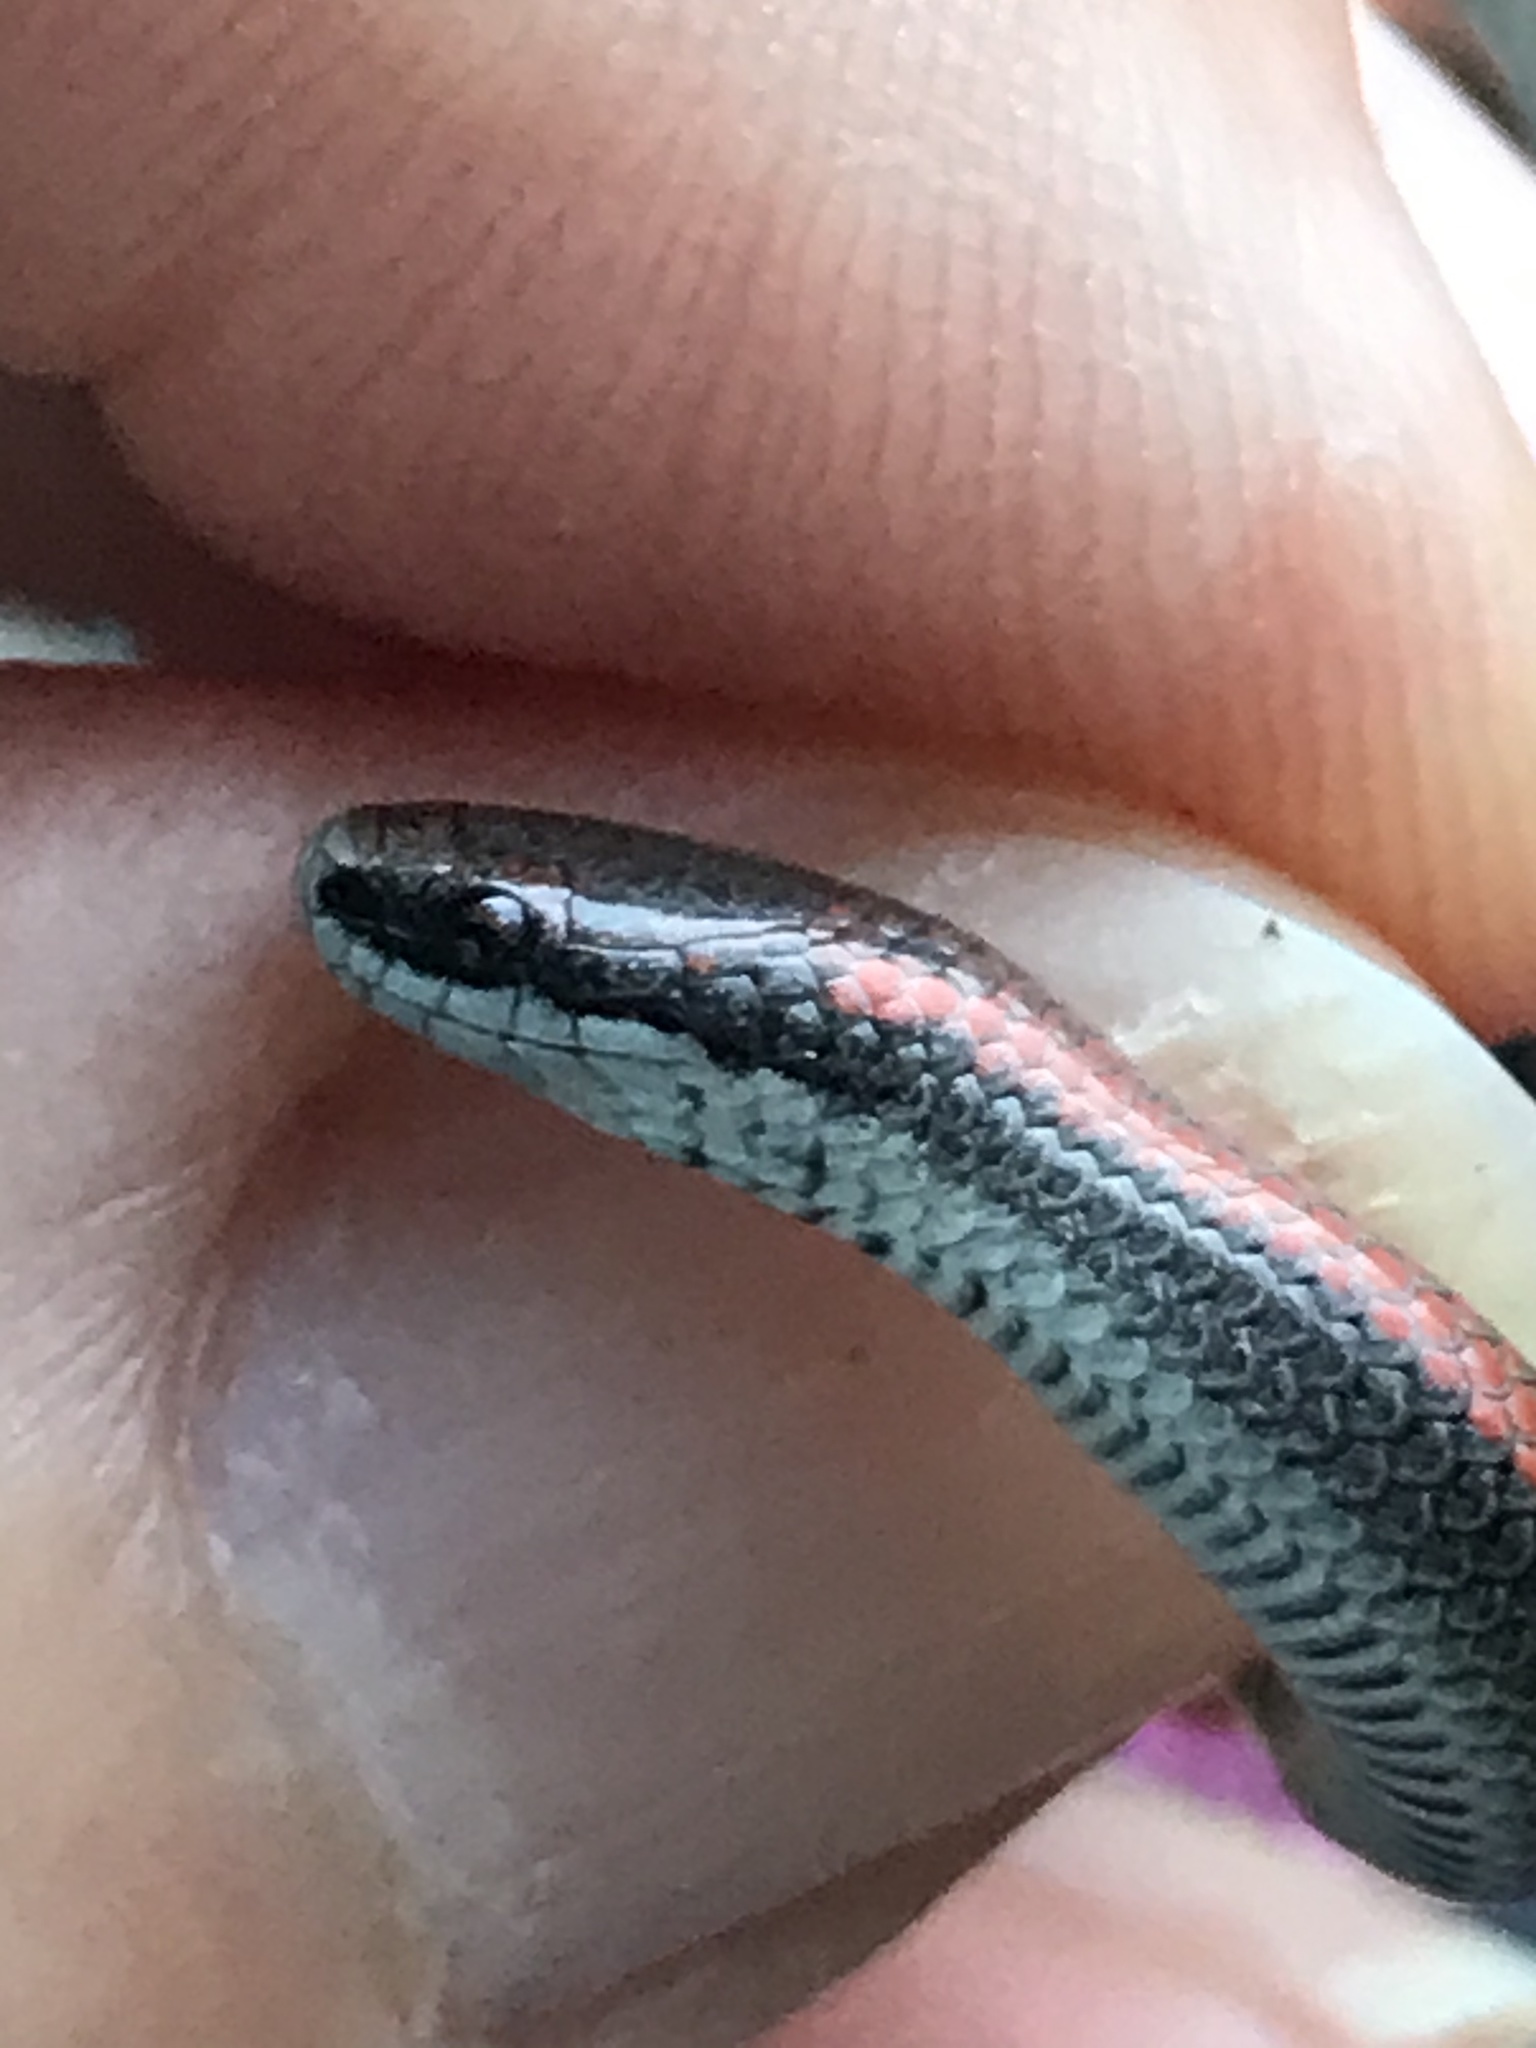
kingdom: Animalia
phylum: Chordata
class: Squamata
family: Colubridae
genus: Contia
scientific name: Contia tenuis
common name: Sharptail snake
